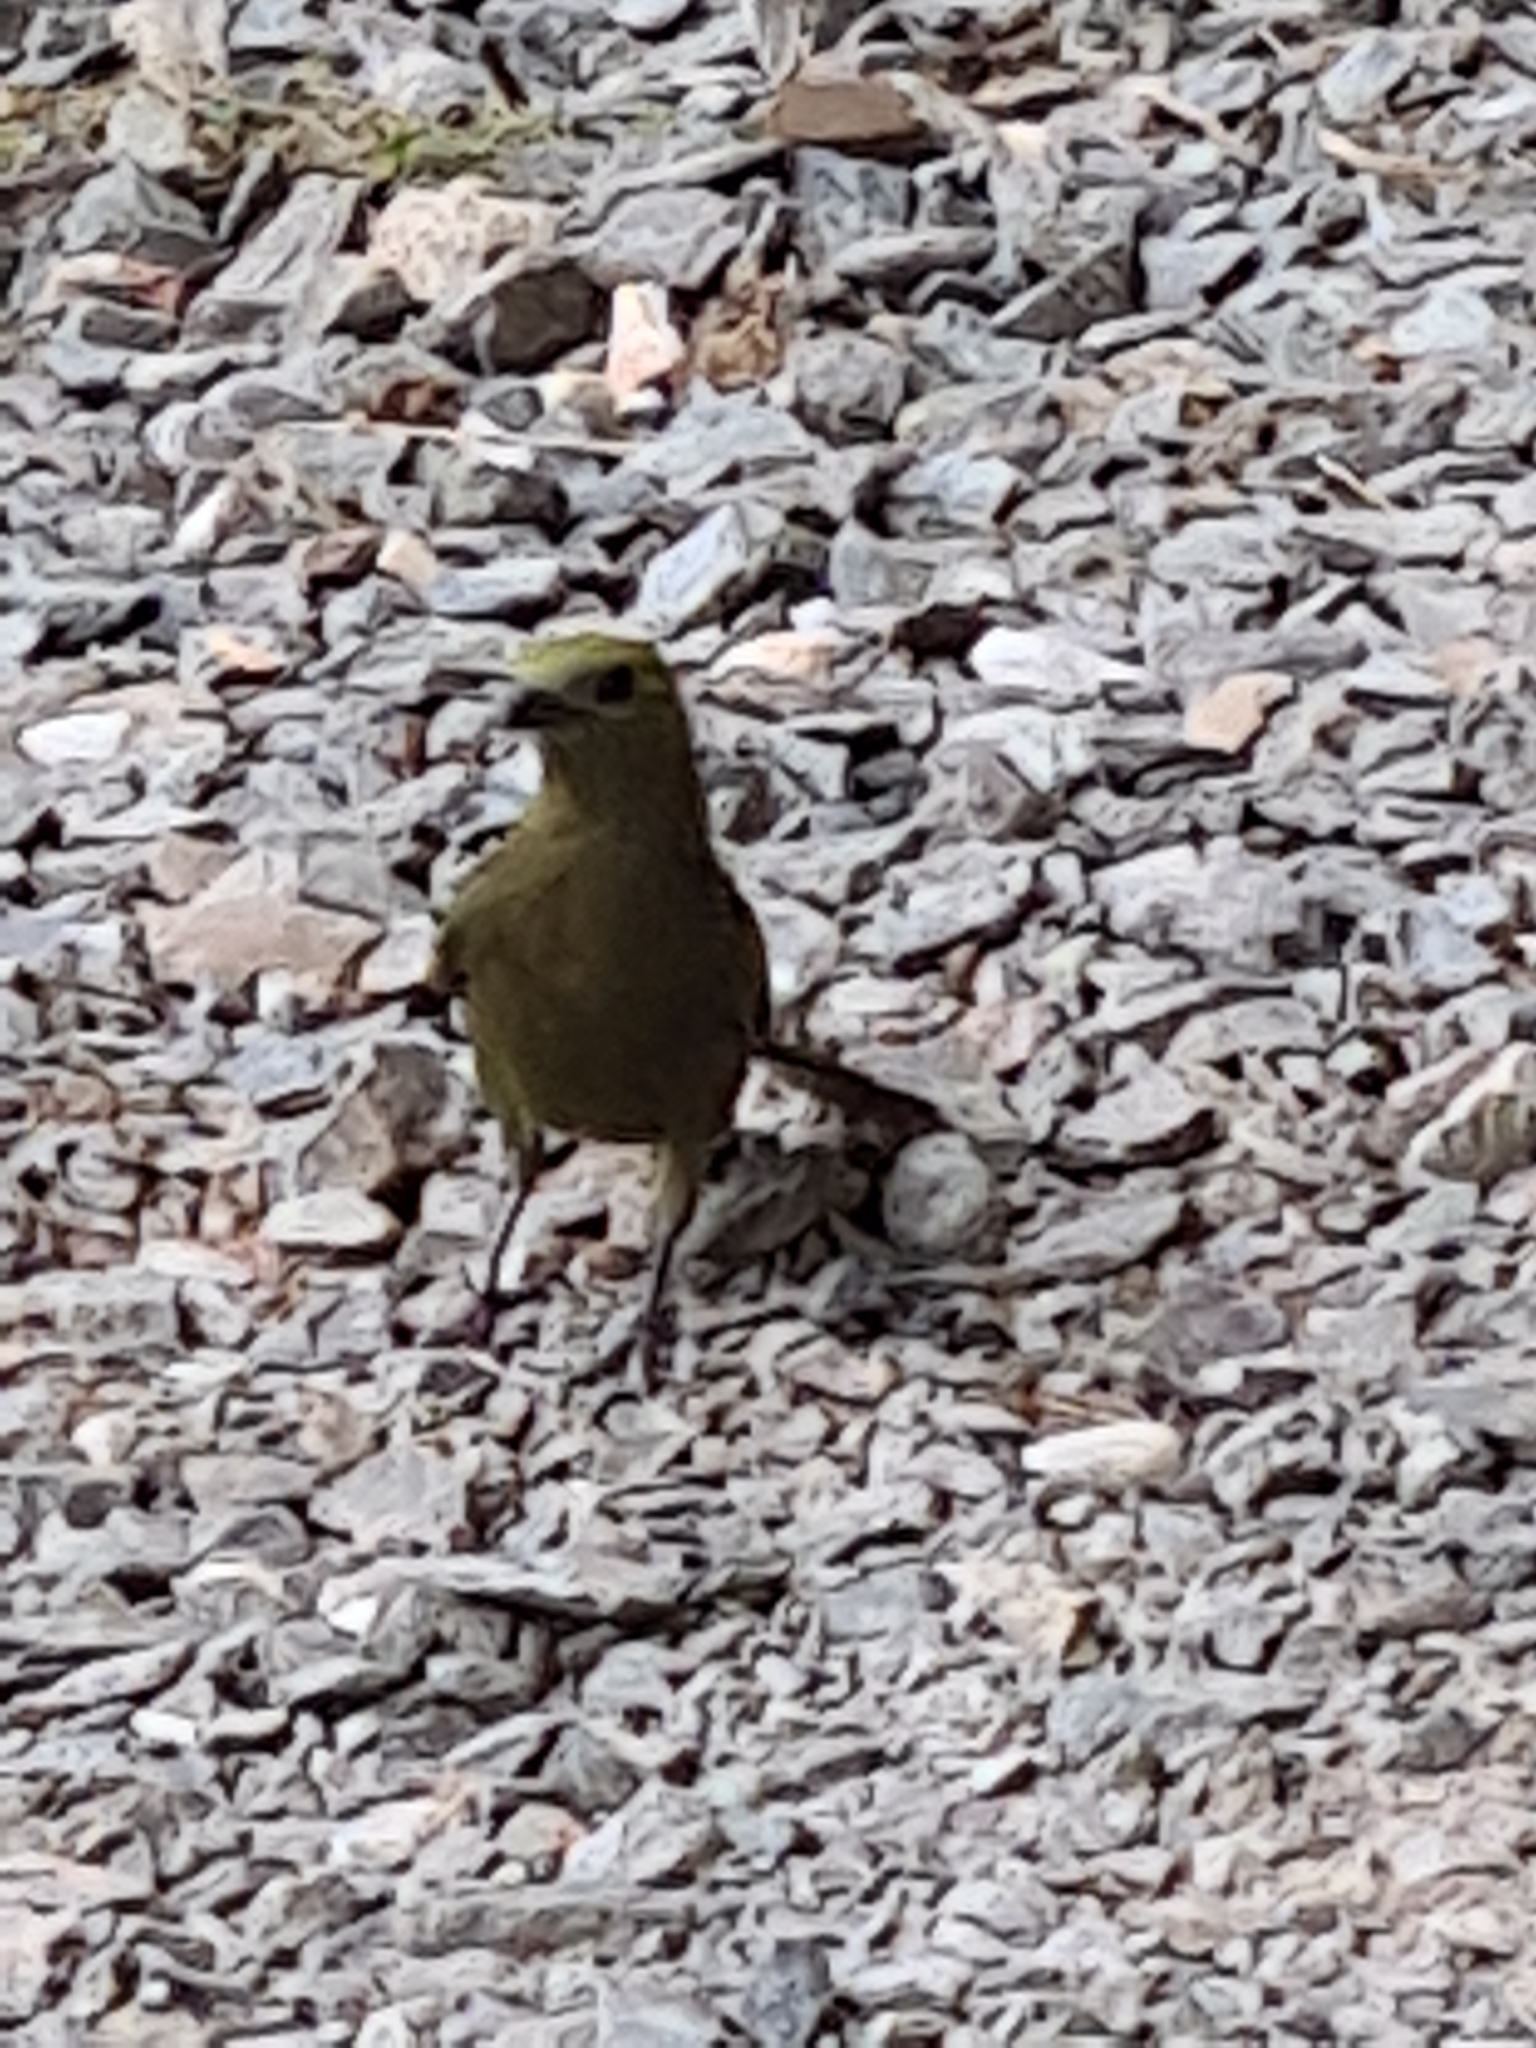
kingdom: Animalia
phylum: Chordata
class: Aves
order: Passeriformes
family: Thraupidae
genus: Thraupis
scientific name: Thraupis palmarum
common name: Palm tanager
